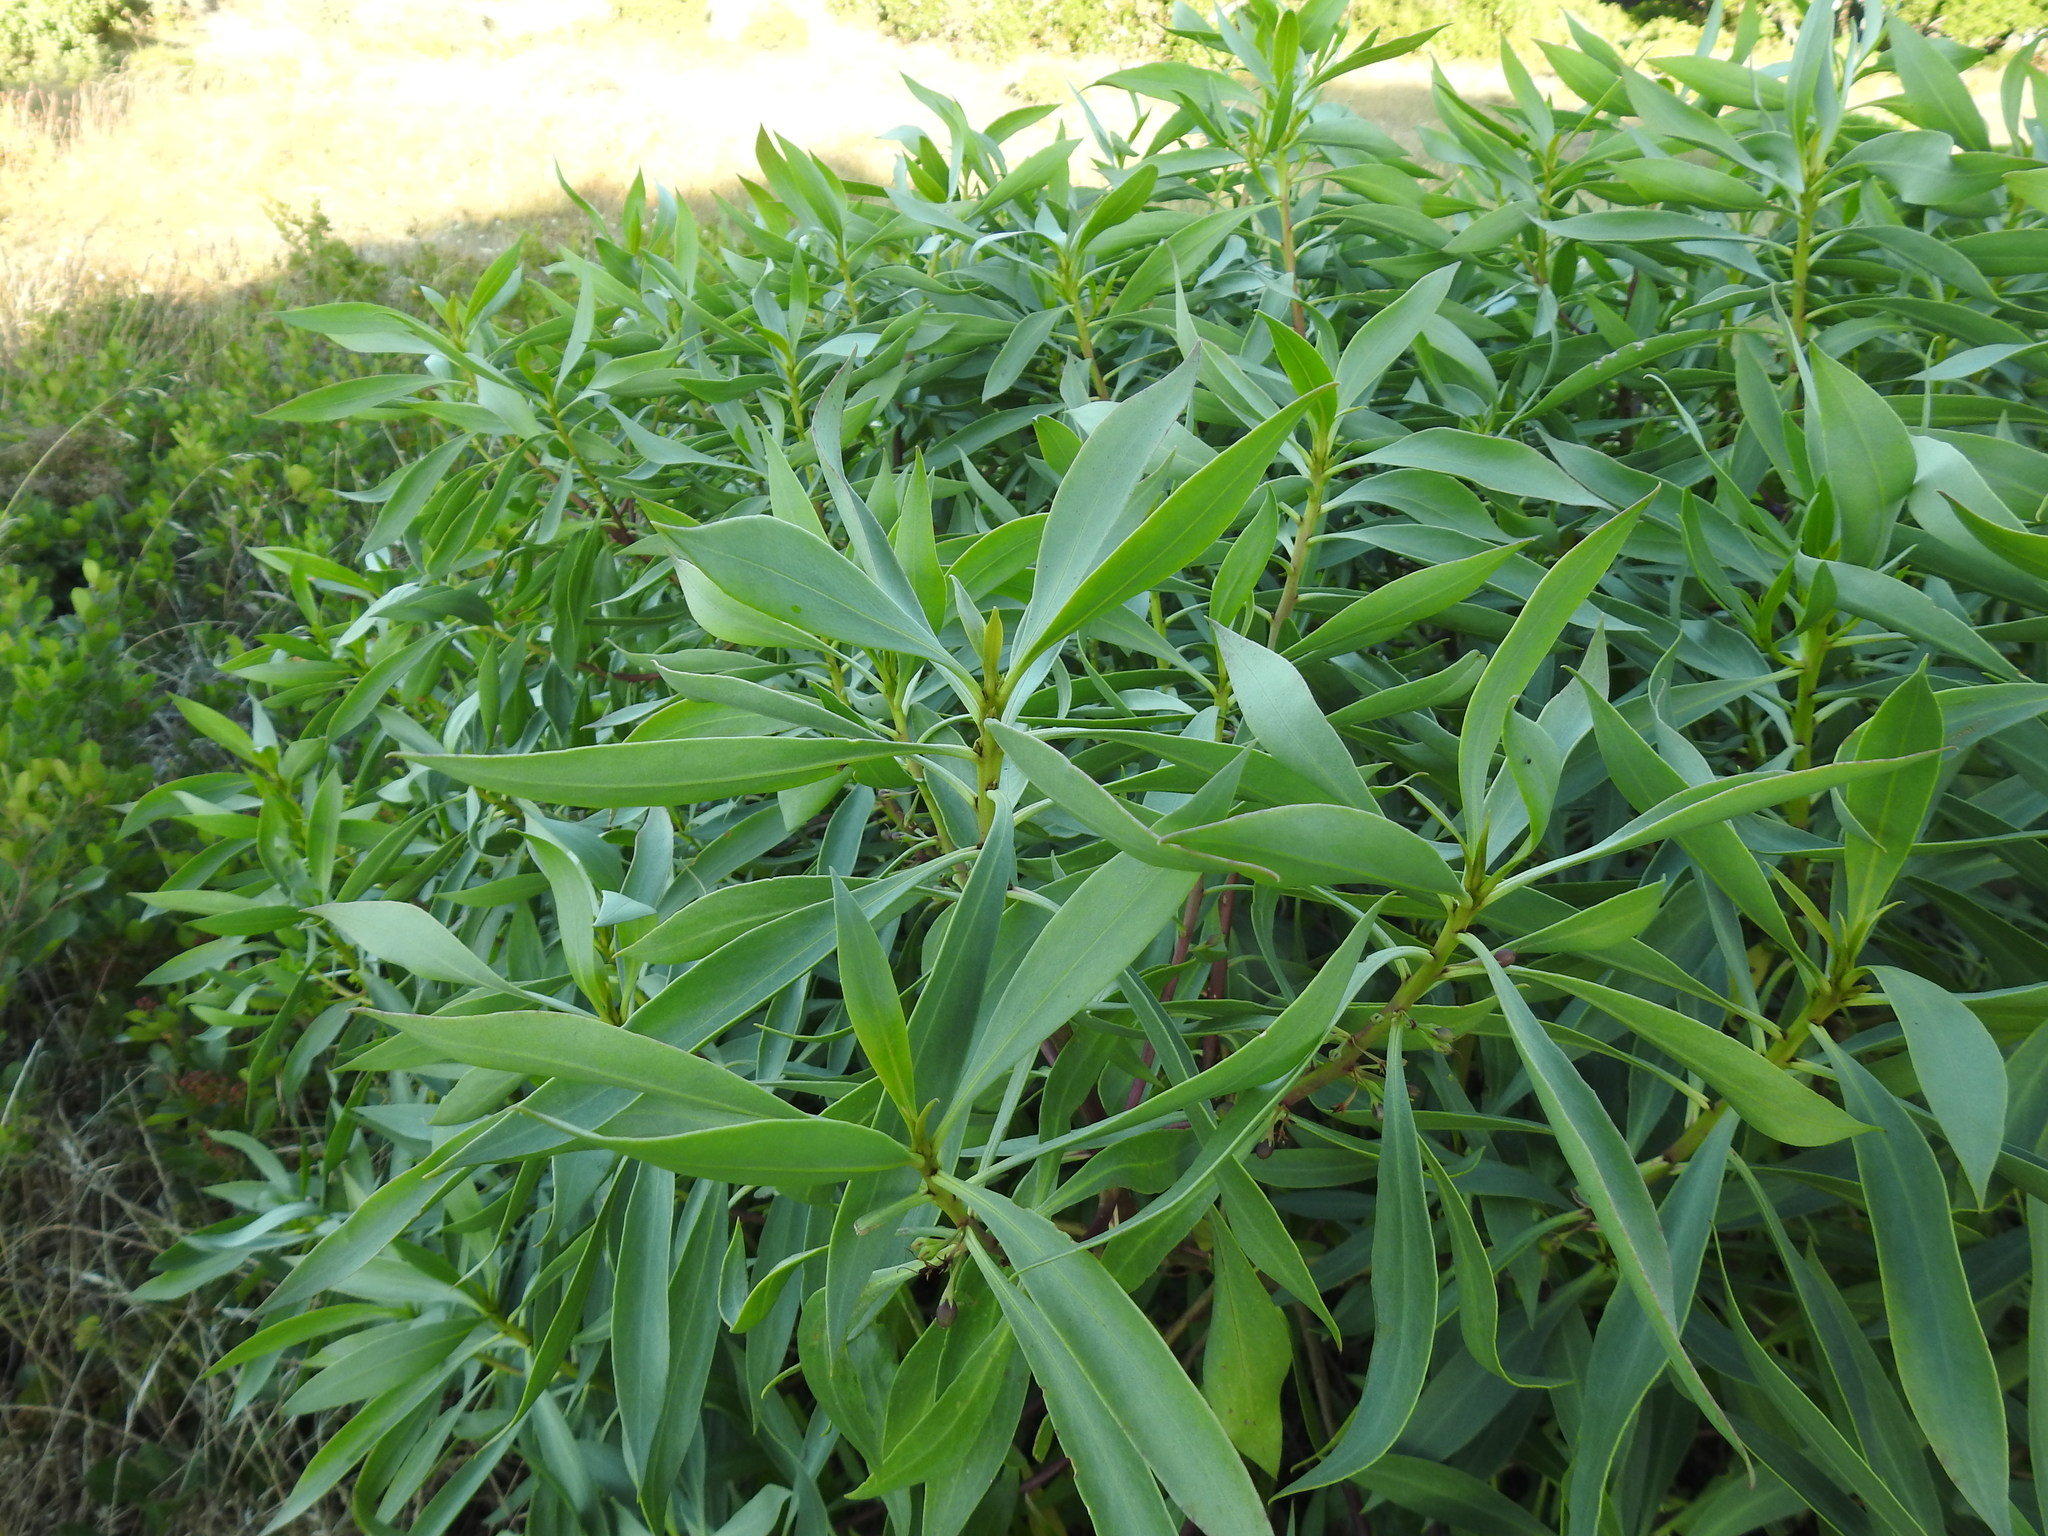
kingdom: Plantae
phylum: Tracheophyta
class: Magnoliopsida
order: Lamiales
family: Scrophulariaceae
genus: Myoporum
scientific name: Myoporum montanum
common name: Waterbush
